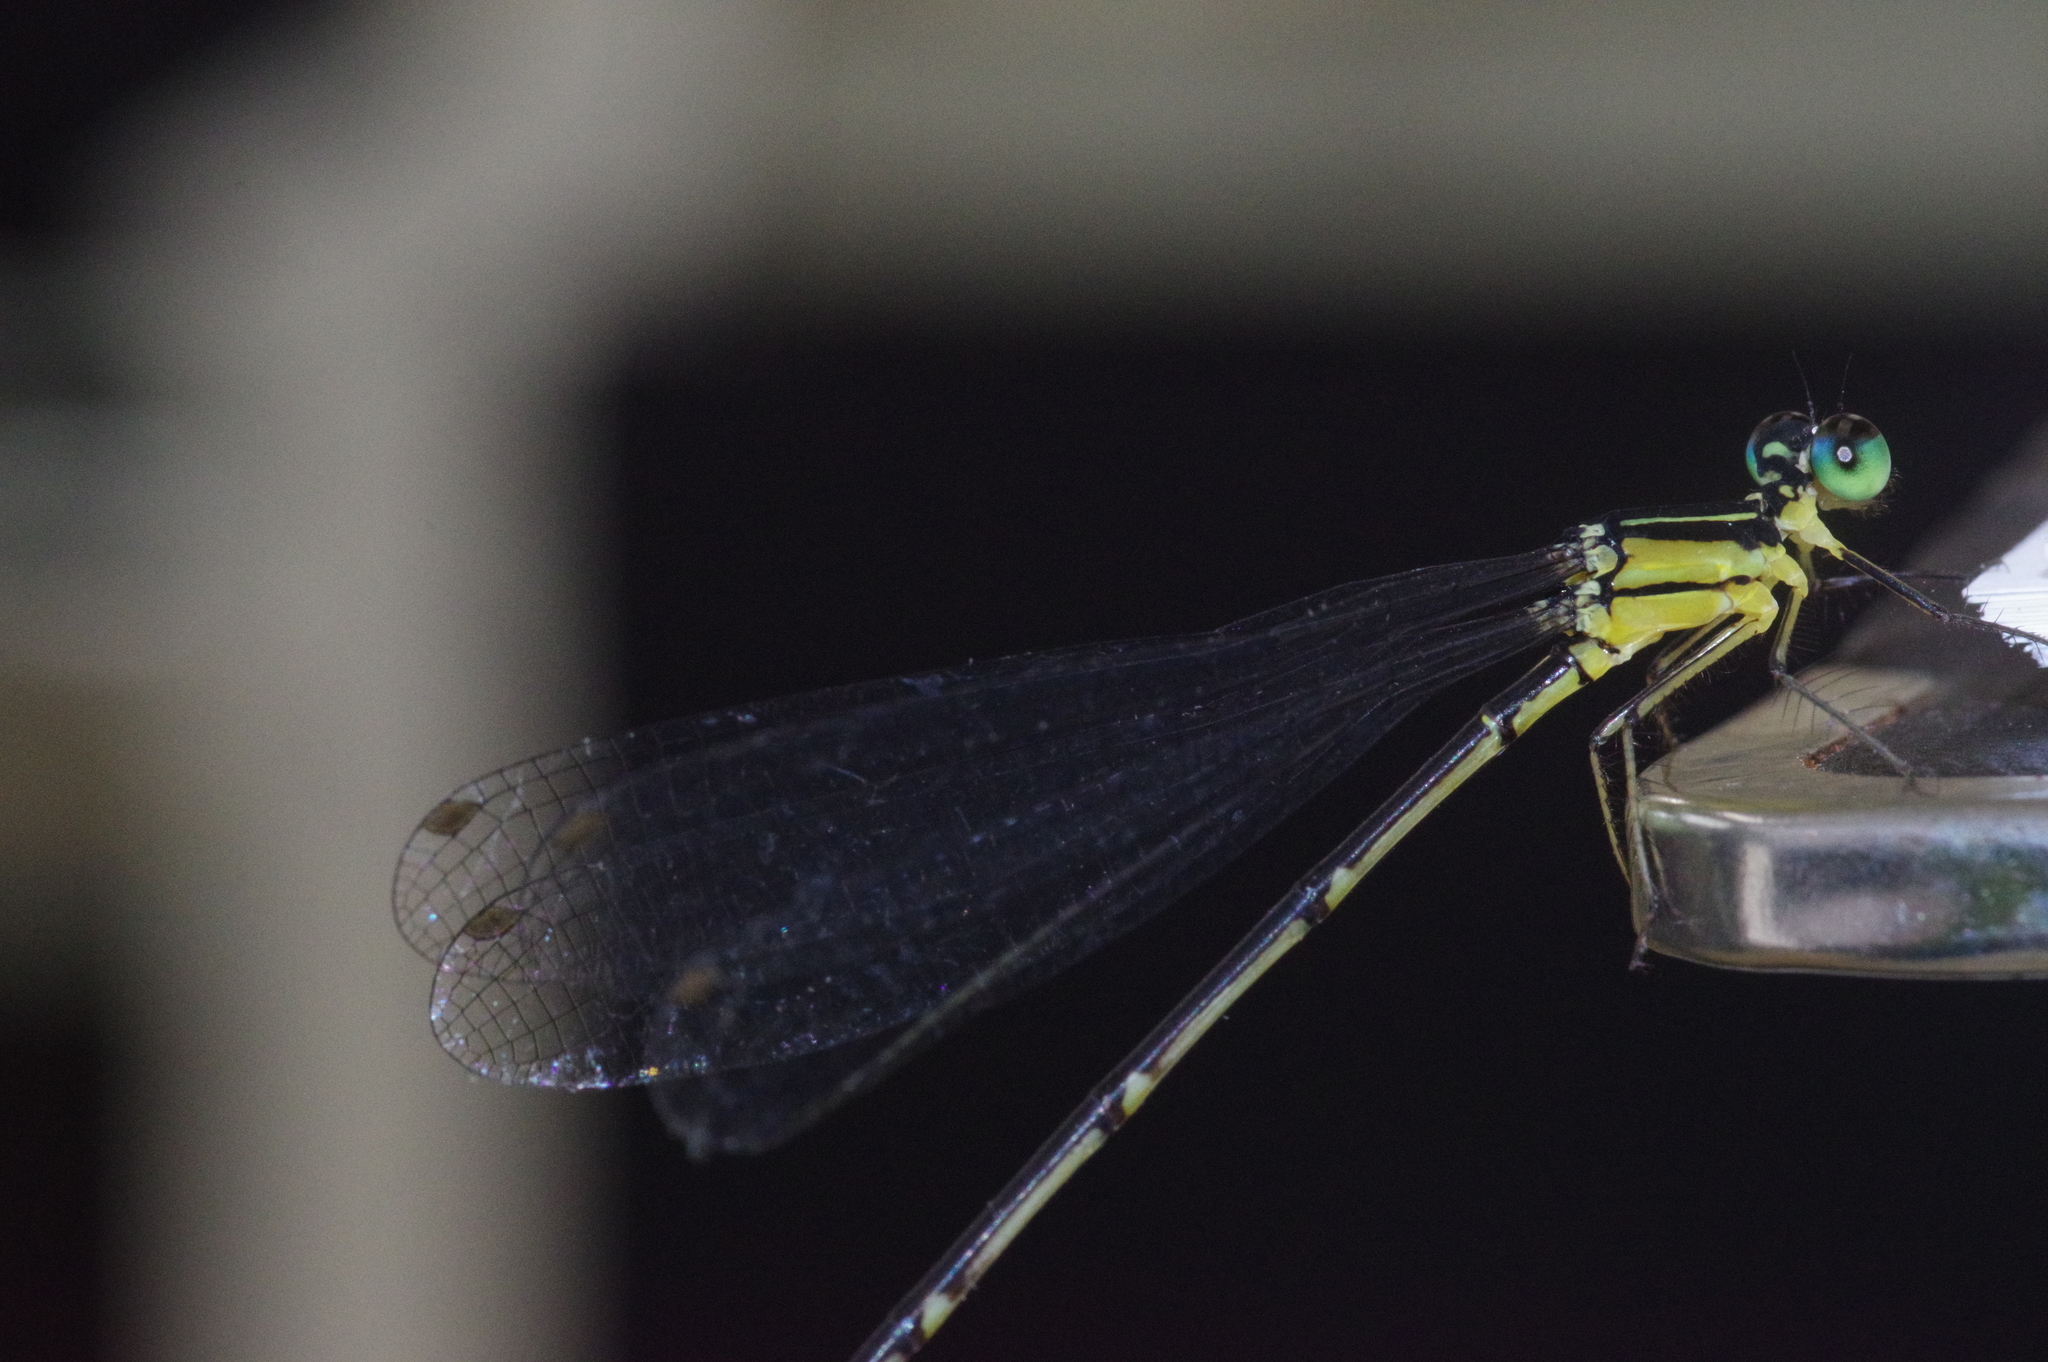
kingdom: Animalia
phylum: Arthropoda
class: Insecta
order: Odonata
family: Platycnemididae
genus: Coeliccia
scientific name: Coeliccia ryukyuensis
